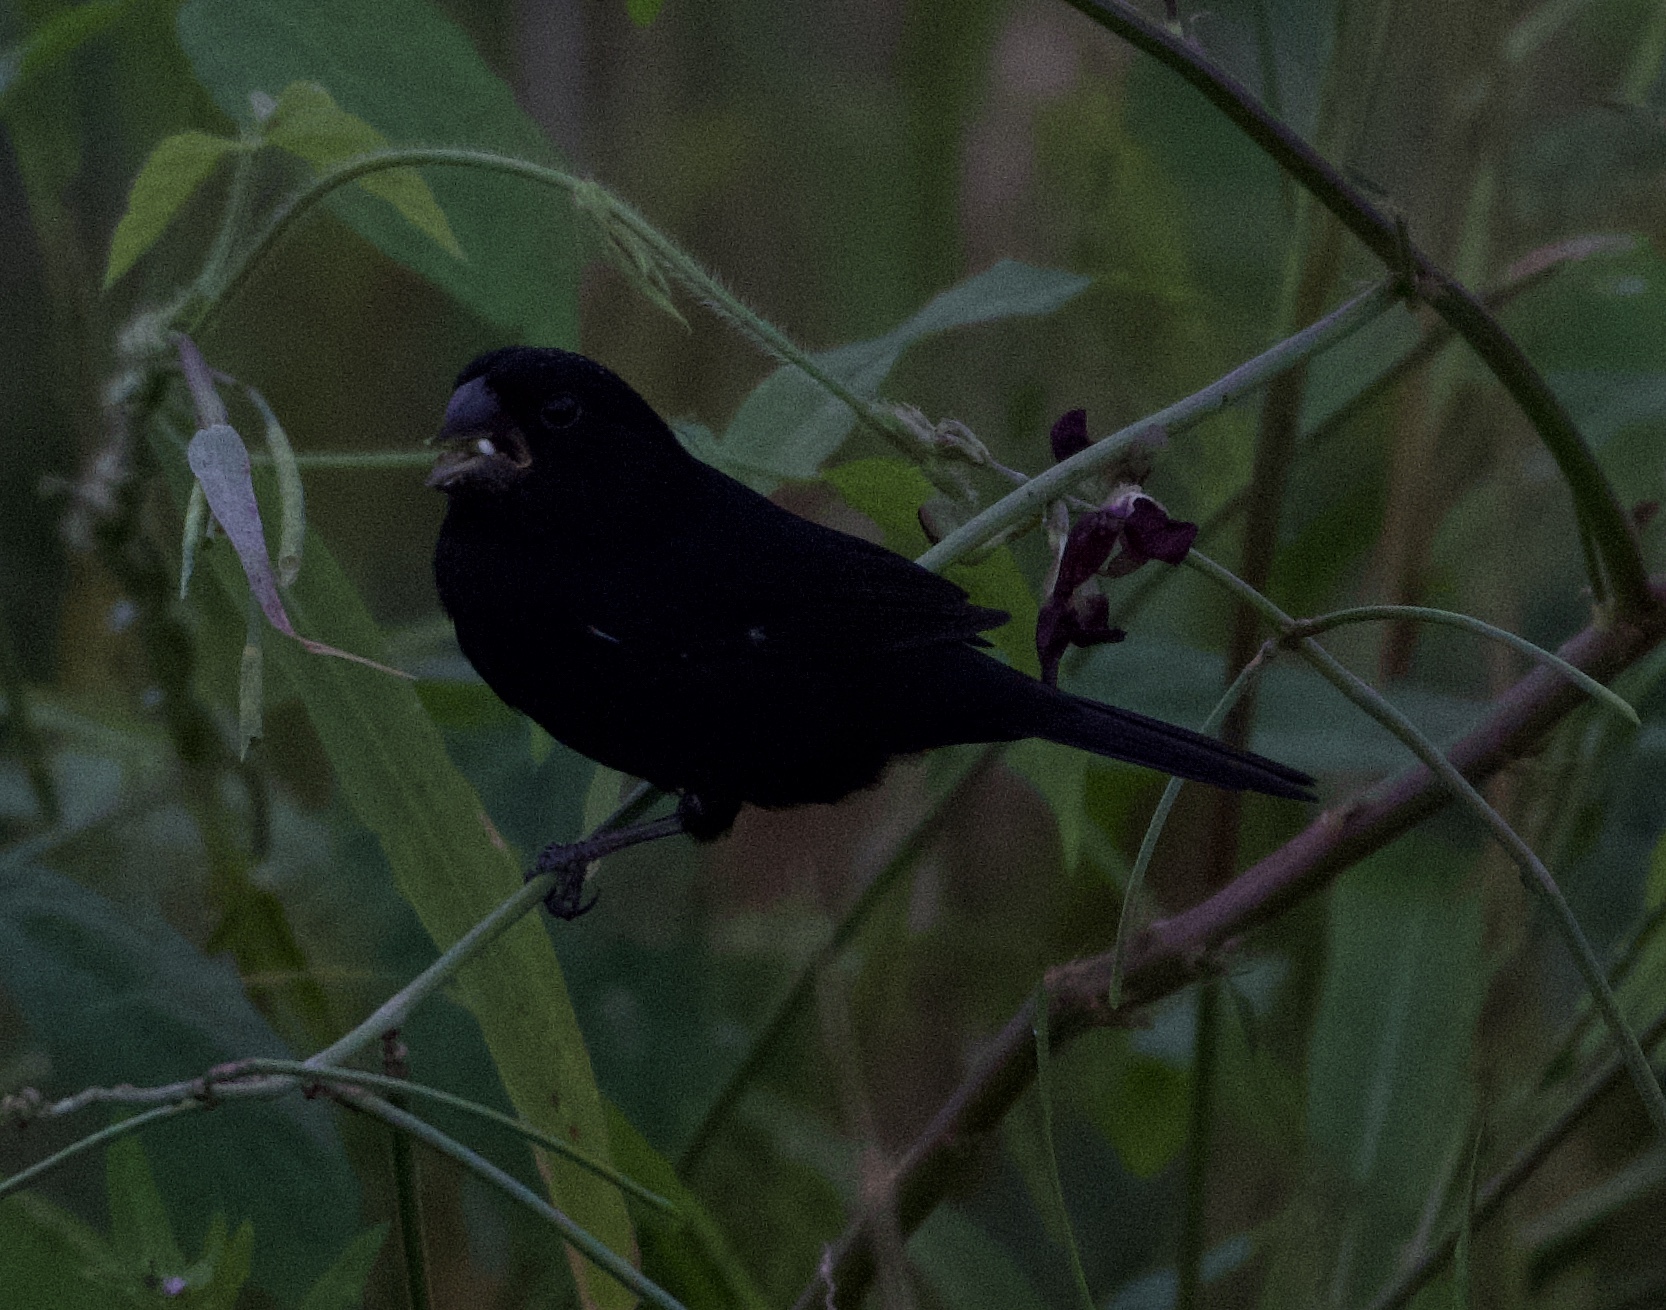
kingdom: Animalia
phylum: Chordata
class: Aves
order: Passeriformes
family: Thraupidae
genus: Sporophila
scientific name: Sporophila funerea
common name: Thick-billed seed-finch
